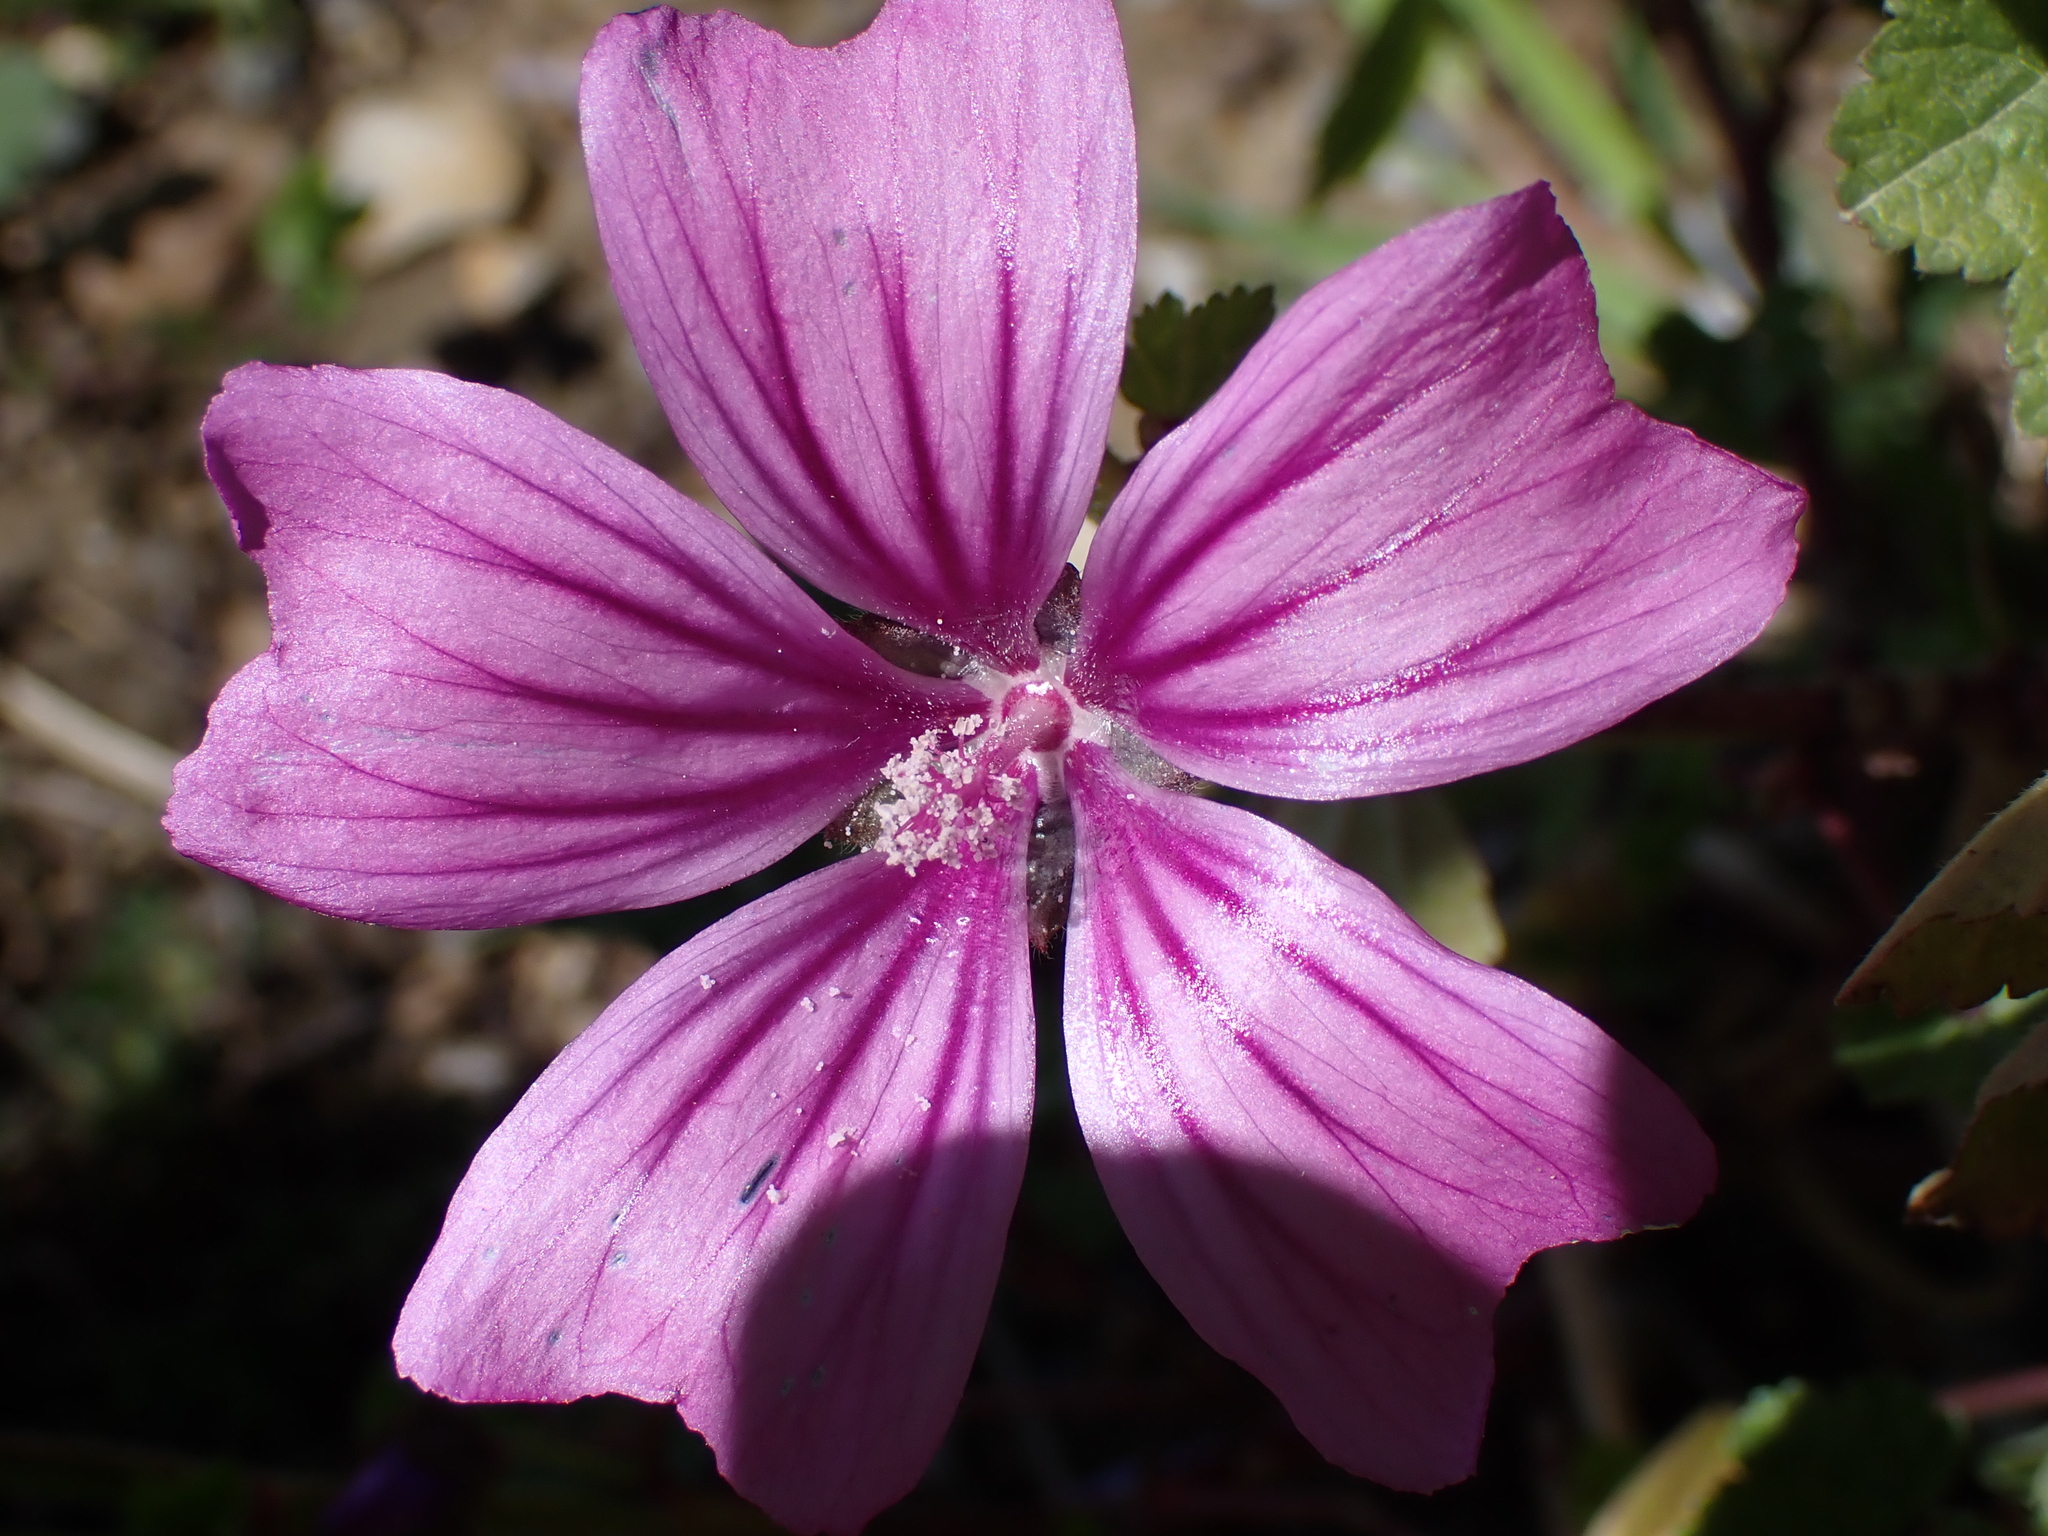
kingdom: Plantae
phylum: Tracheophyta
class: Magnoliopsida
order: Malvales
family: Malvaceae
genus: Malva
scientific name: Malva sylvestris
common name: Common mallow
